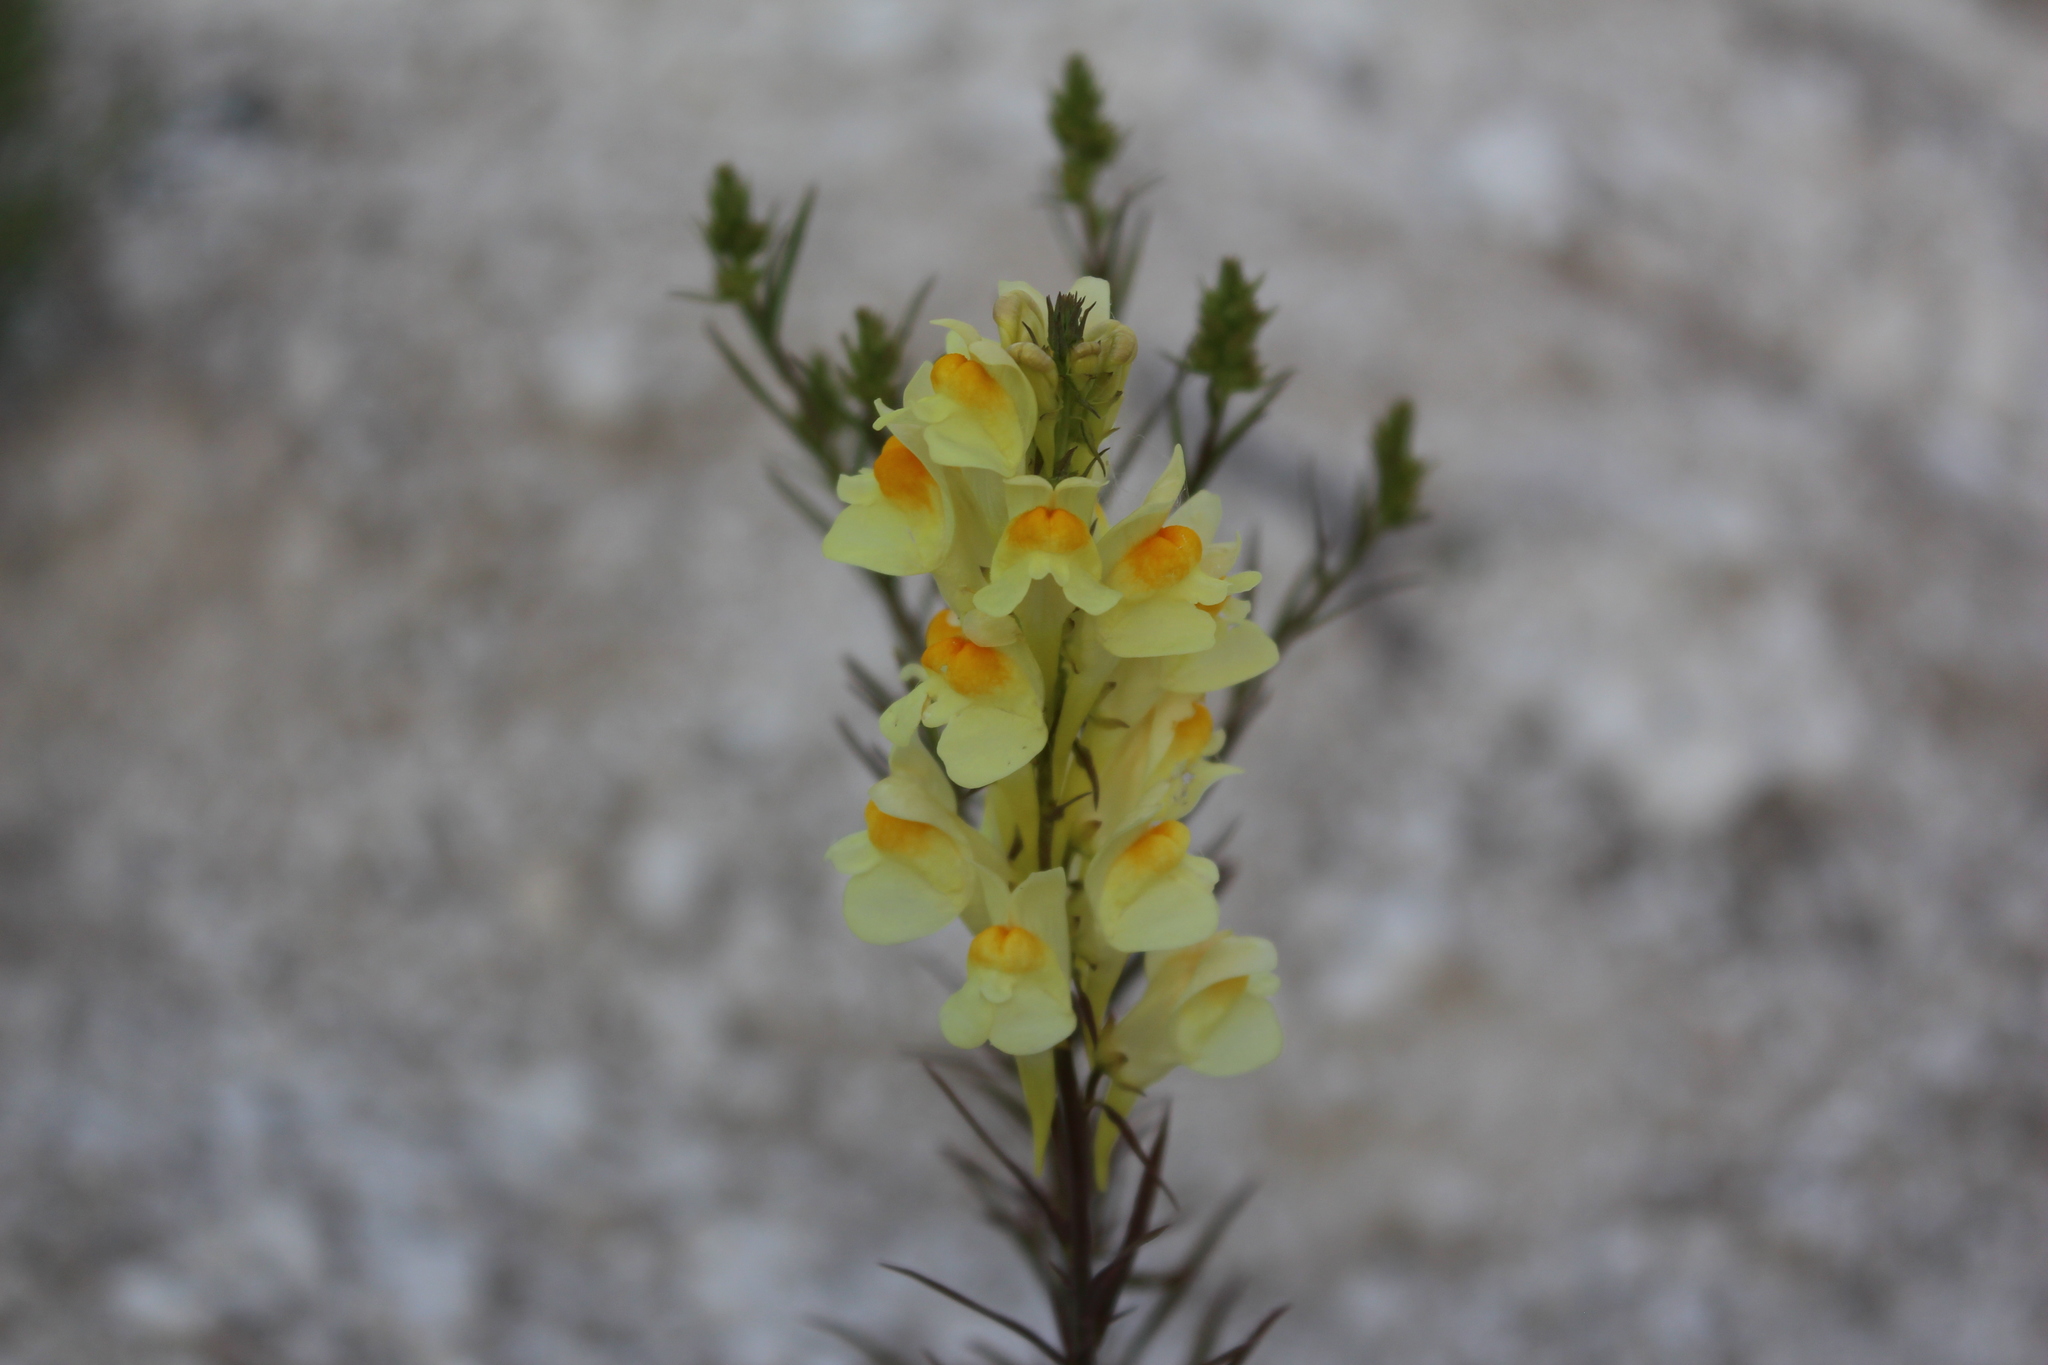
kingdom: Plantae
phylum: Tracheophyta
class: Magnoliopsida
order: Lamiales
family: Plantaginaceae
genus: Linaria
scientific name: Linaria vulgaris
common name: Butter and eggs
